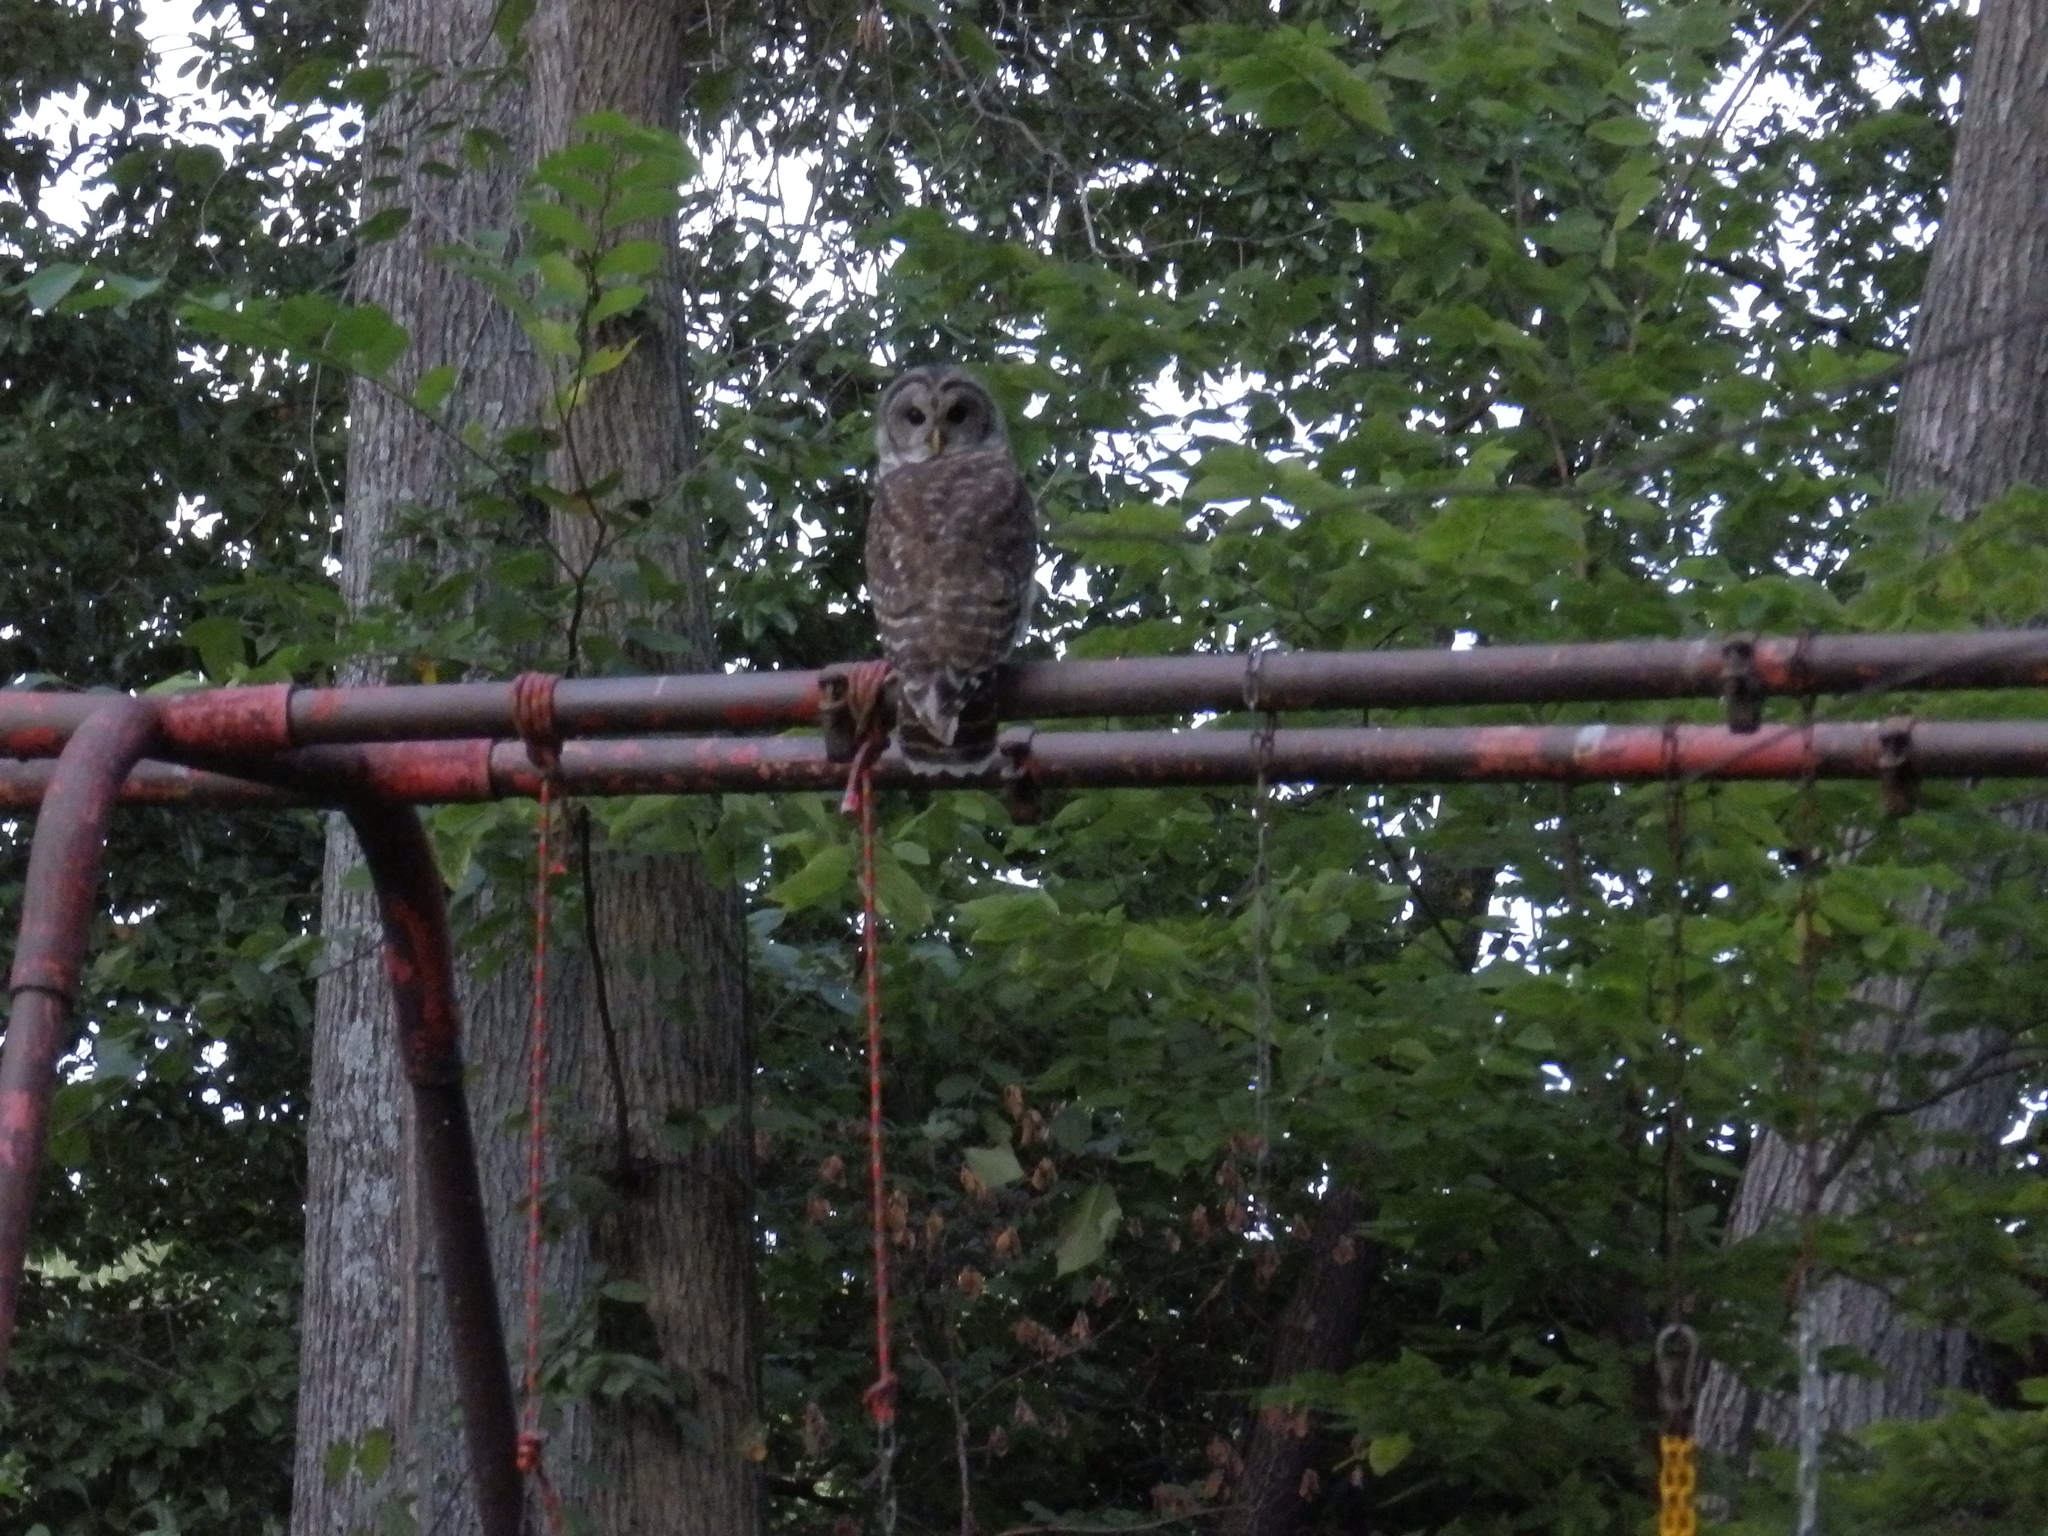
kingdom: Animalia
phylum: Chordata
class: Aves
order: Strigiformes
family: Strigidae
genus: Strix
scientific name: Strix varia
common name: Barred owl
